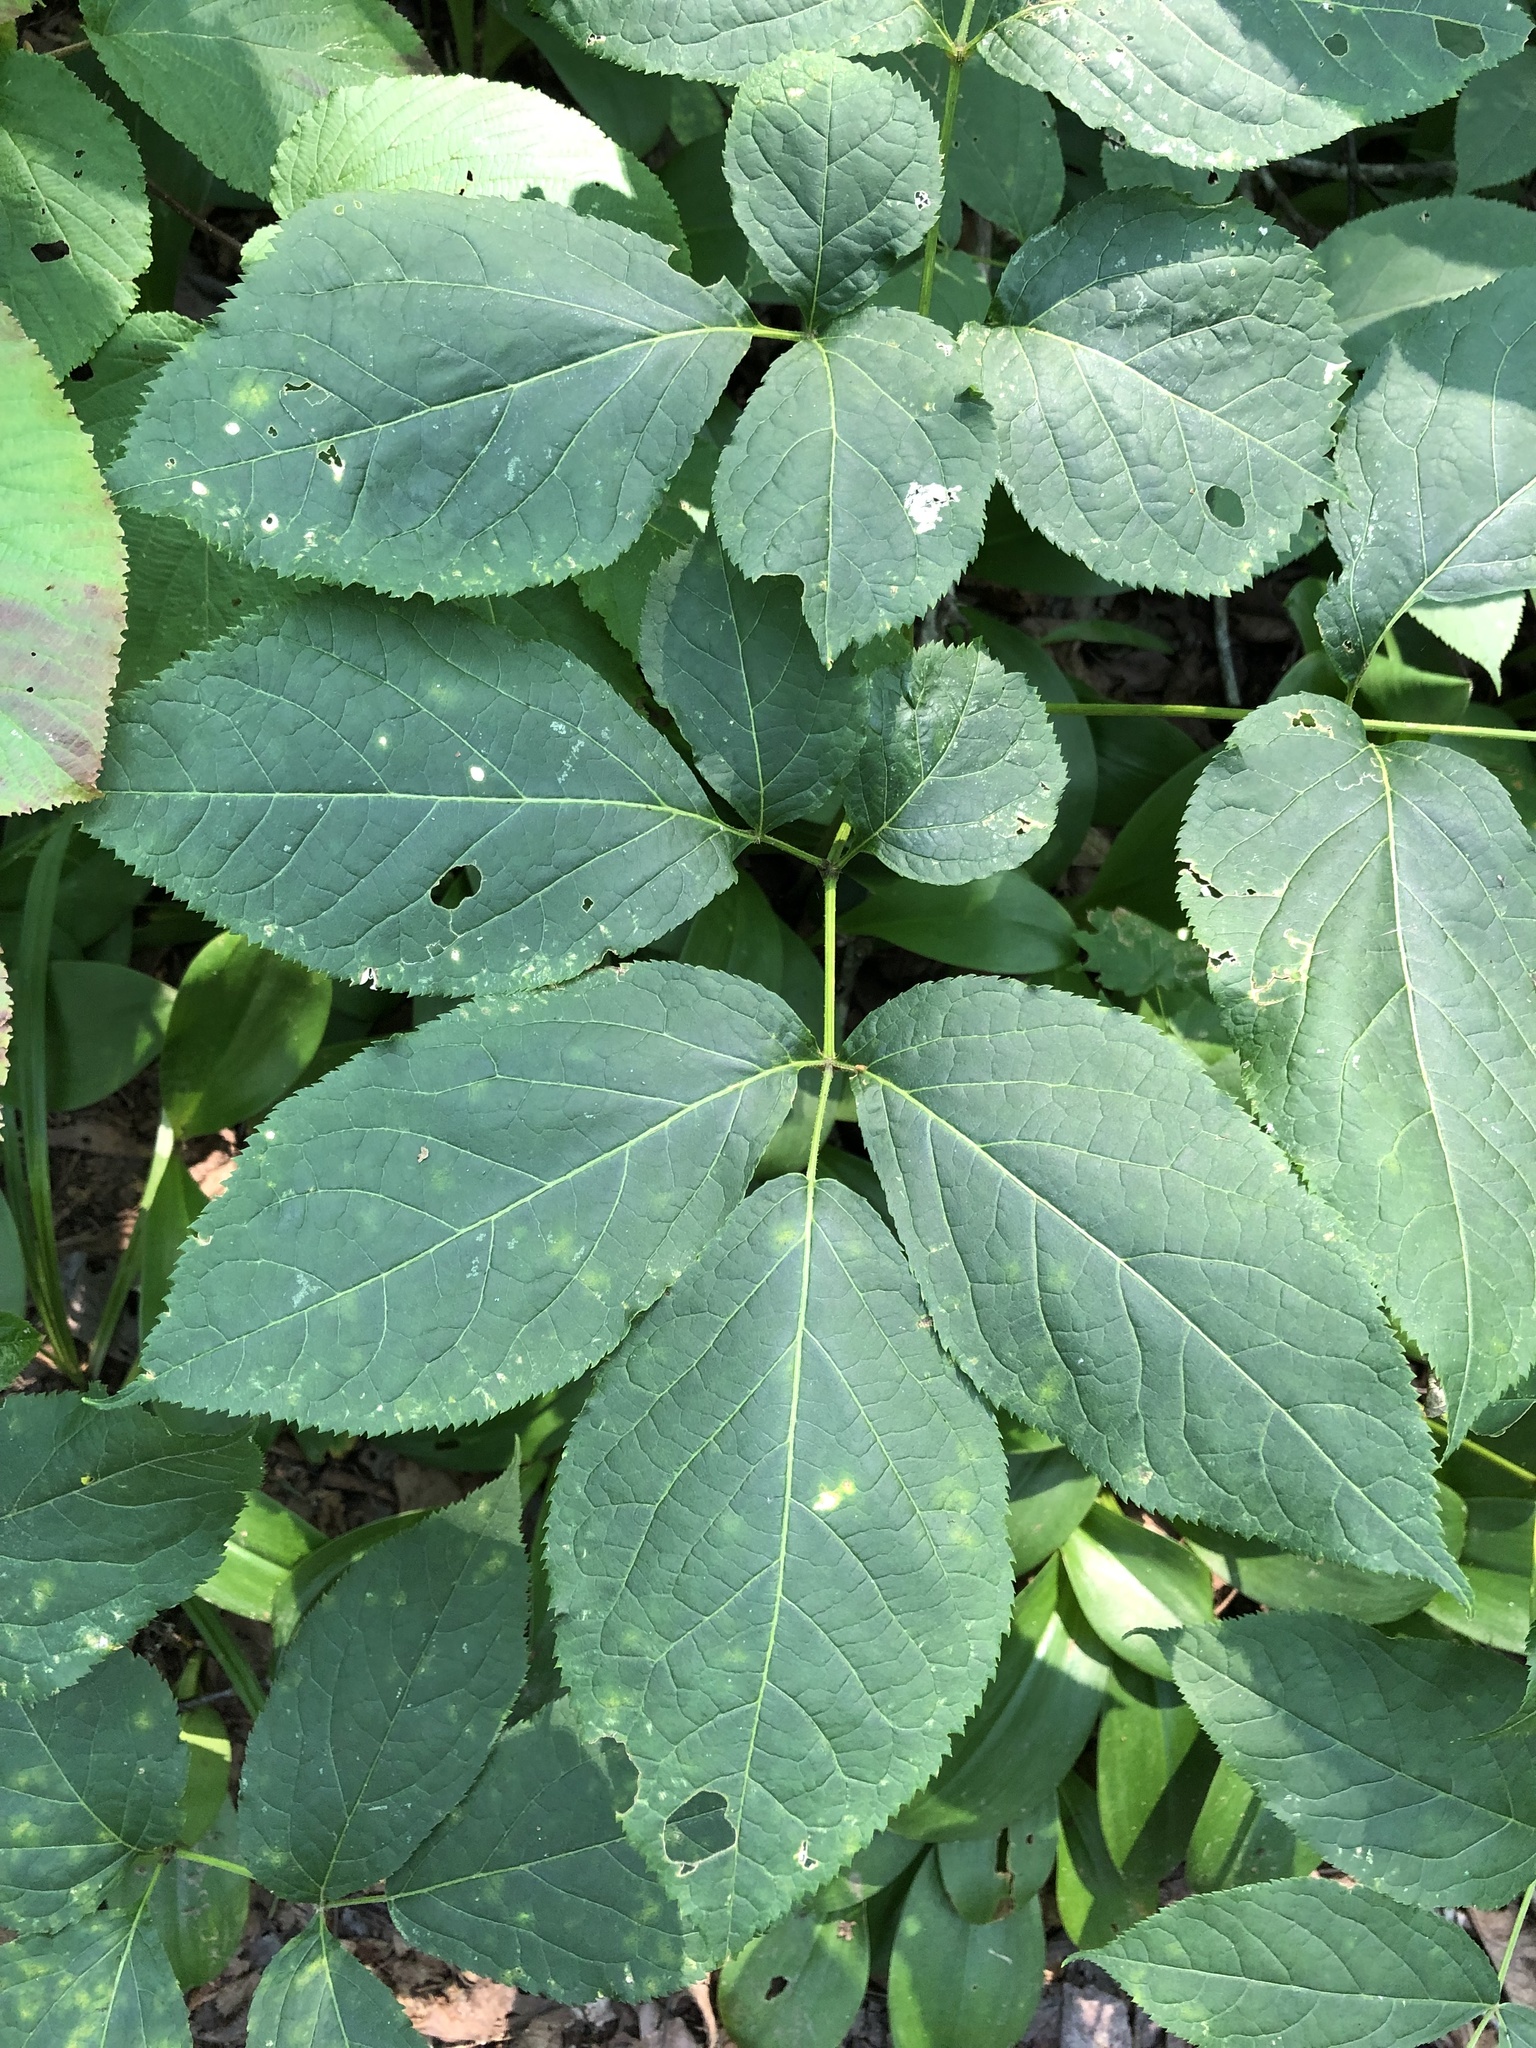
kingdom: Plantae
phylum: Tracheophyta
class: Magnoliopsida
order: Apiales
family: Araliaceae
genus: Aralia
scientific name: Aralia nudicaulis
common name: Wild sarsaparilla
